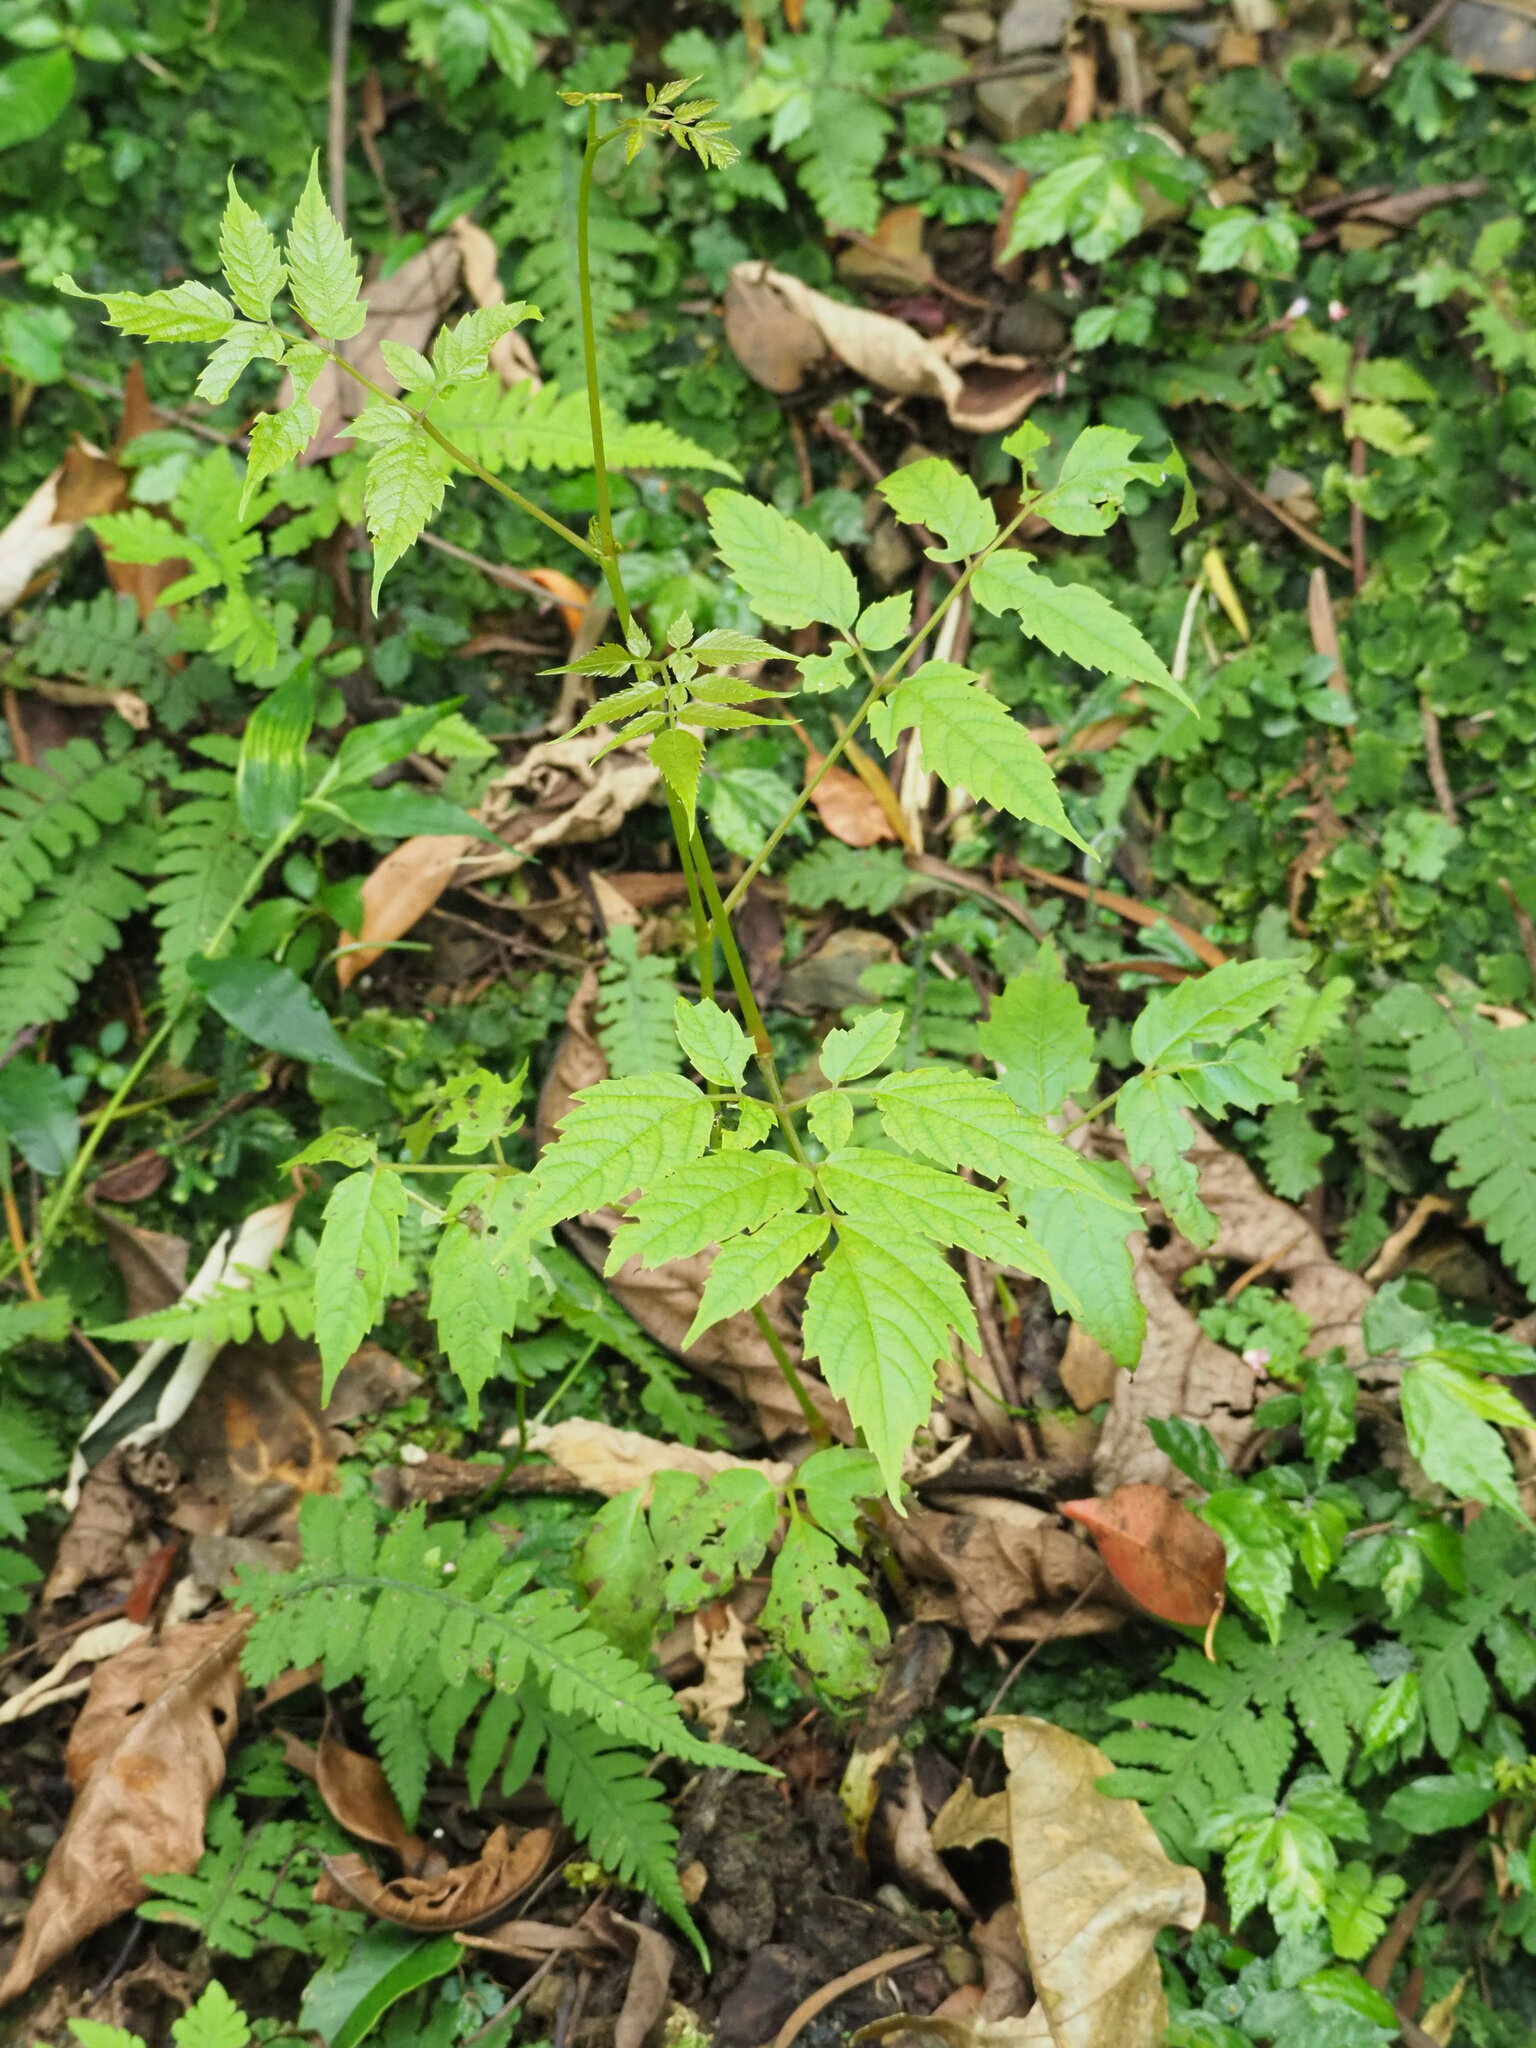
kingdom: Plantae
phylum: Tracheophyta
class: Magnoliopsida
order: Vitales
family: Vitaceae
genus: Nekemias
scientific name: Nekemias cantoniensis
